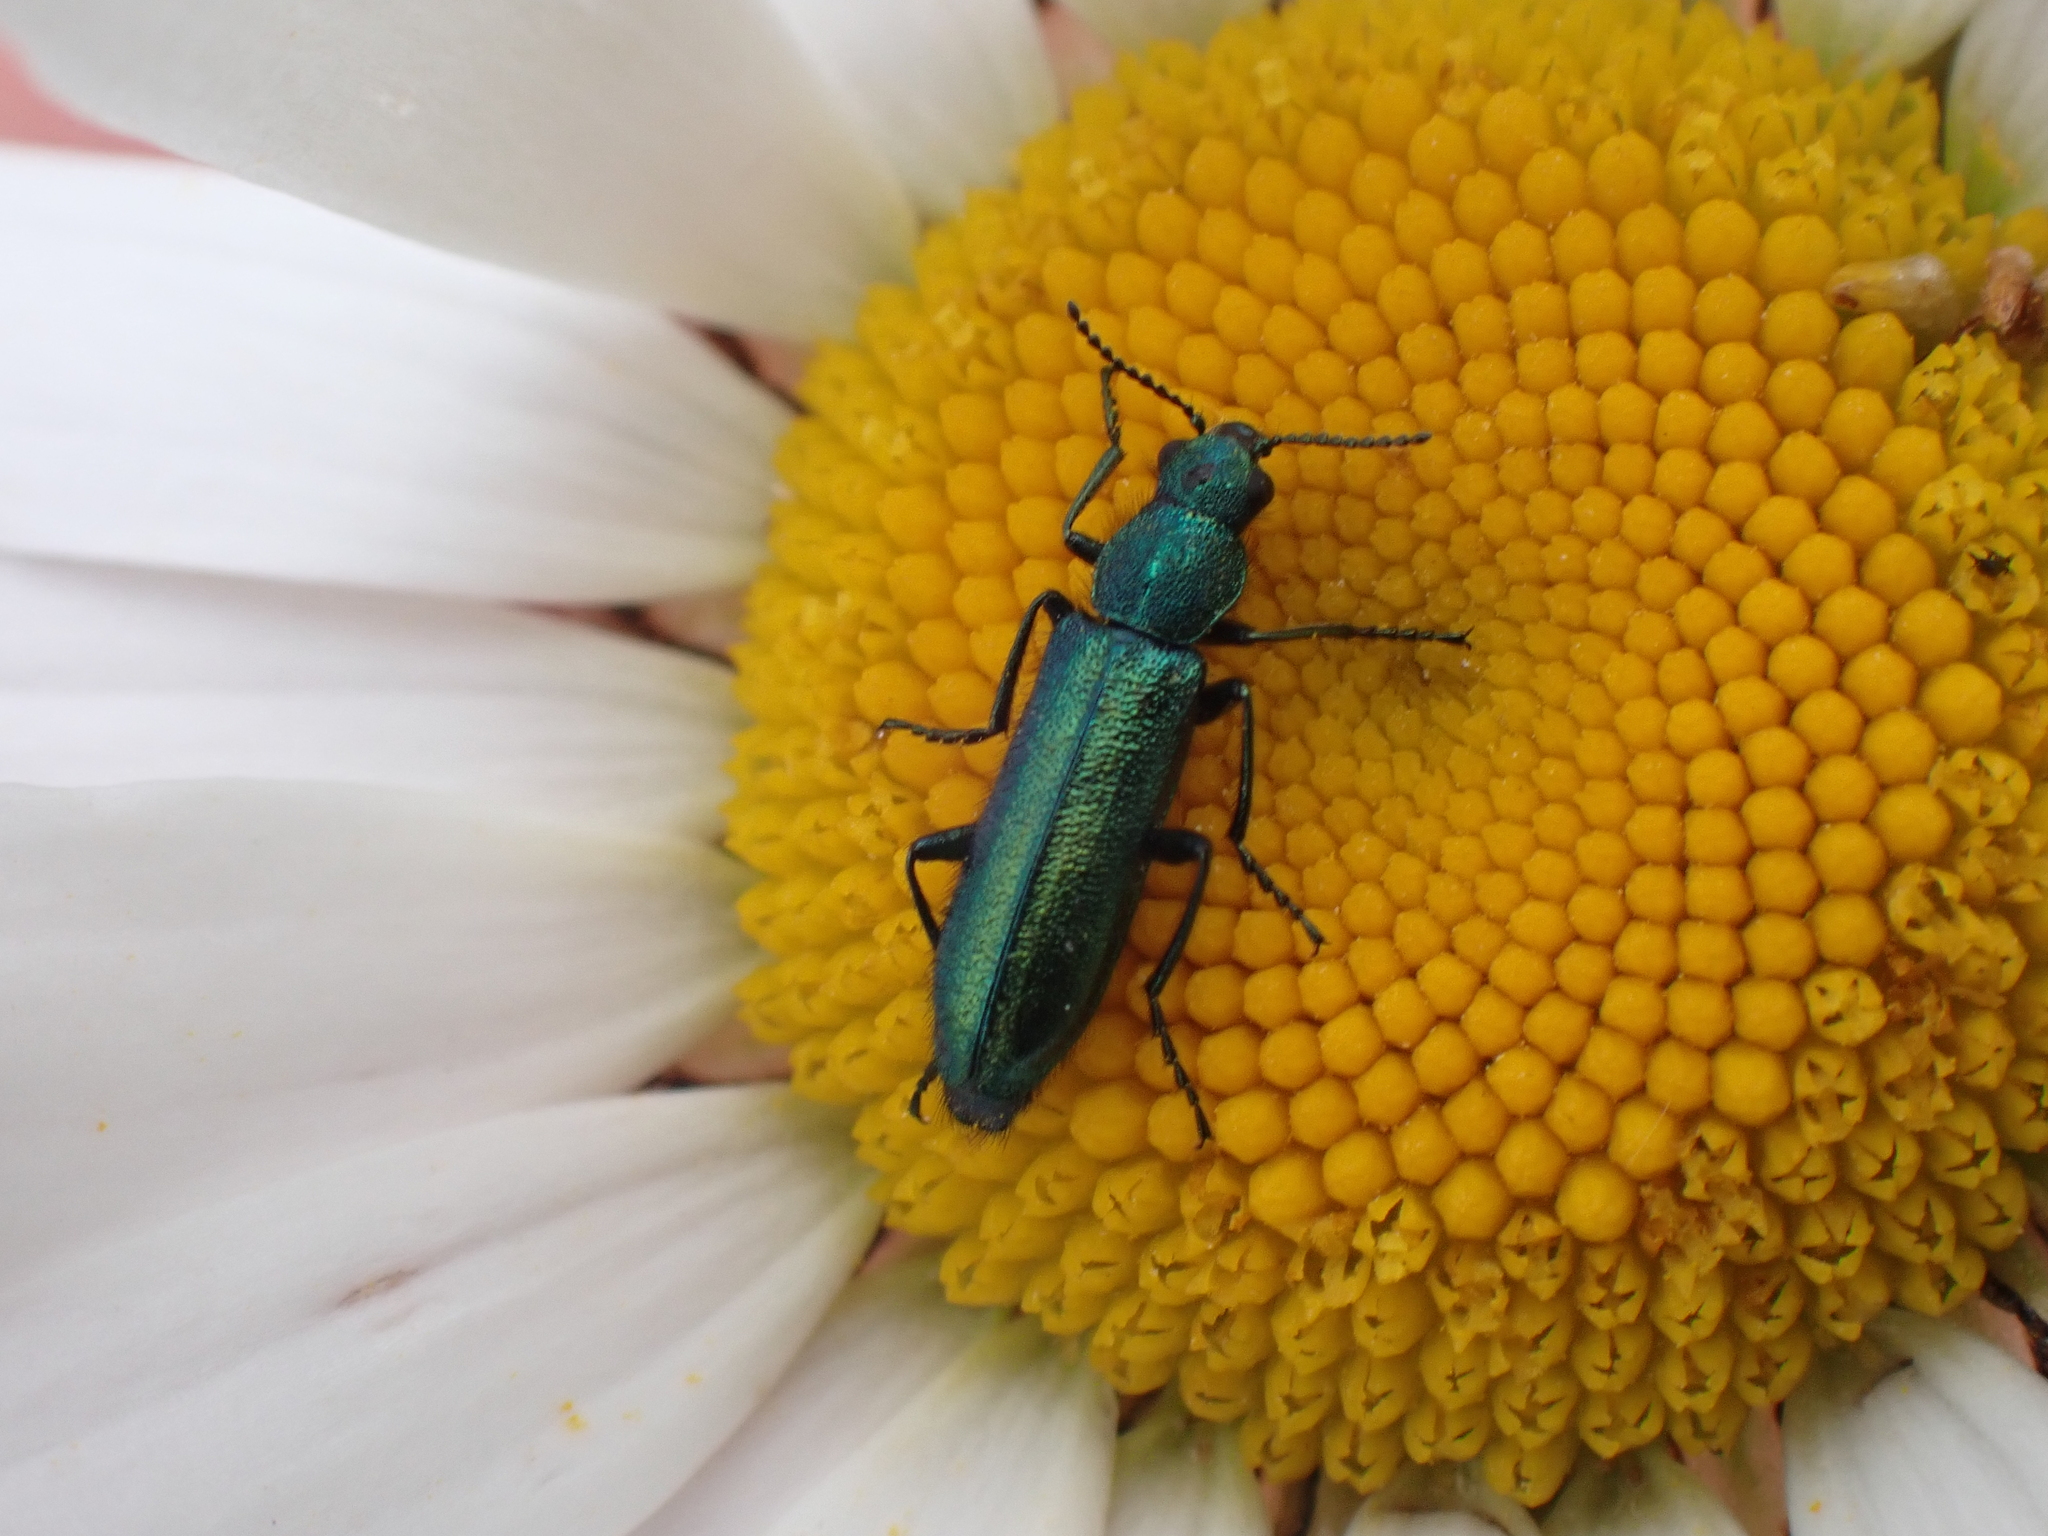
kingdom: Animalia
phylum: Arthropoda
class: Insecta
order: Coleoptera
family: Dasytidae
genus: Psilothrix
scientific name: Psilothrix viridicoerulea
